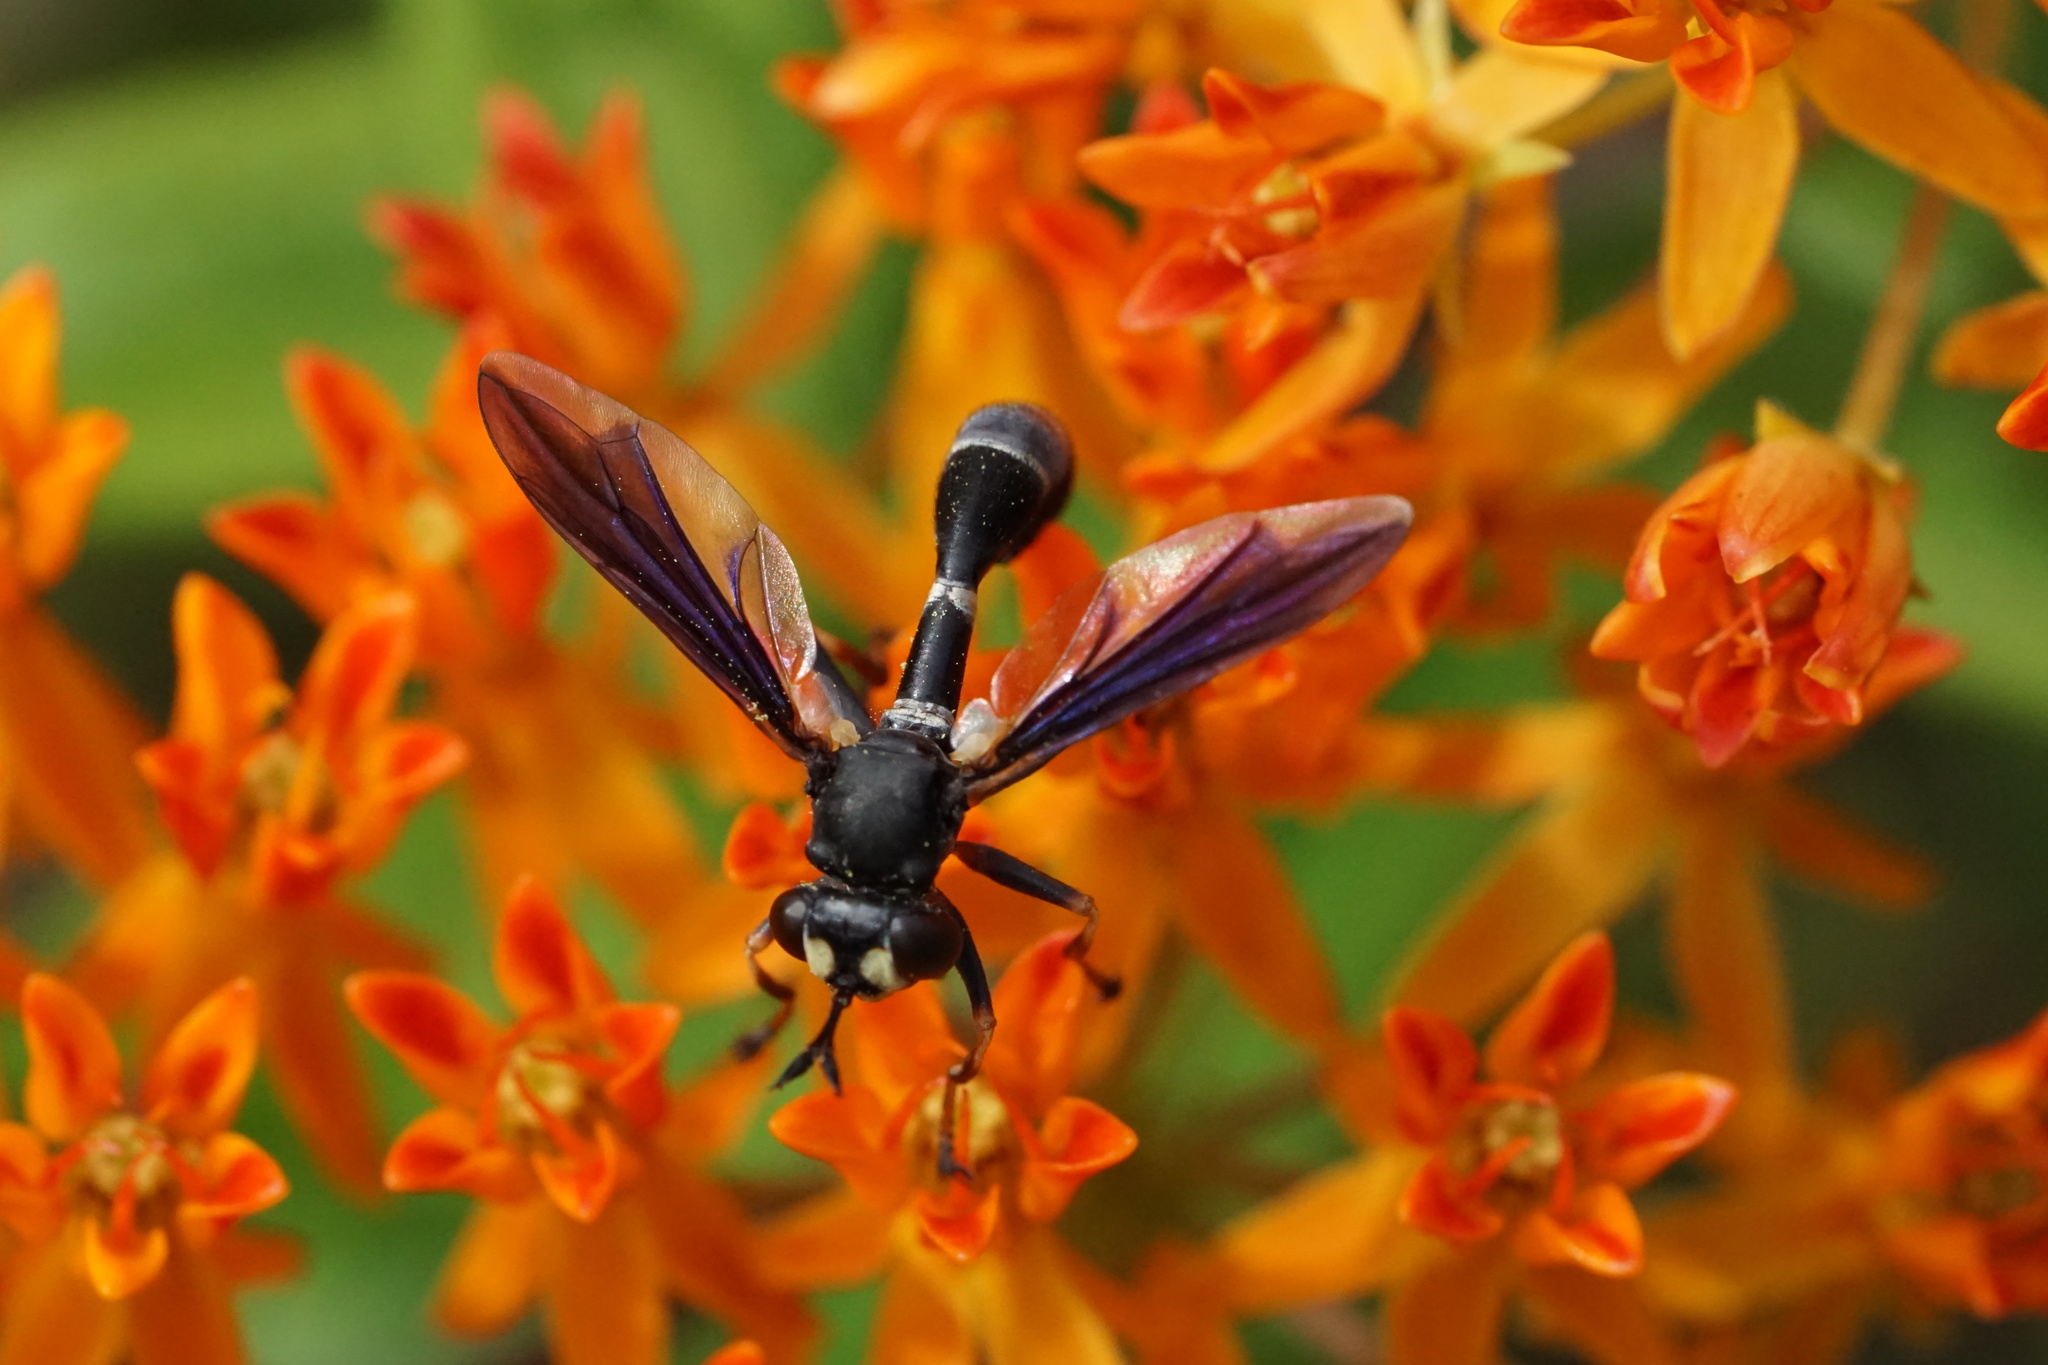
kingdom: Animalia
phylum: Arthropoda
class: Insecta
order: Diptera
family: Conopidae
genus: Physocephala
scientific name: Physocephala tibialis
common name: Common eastern physocephala
